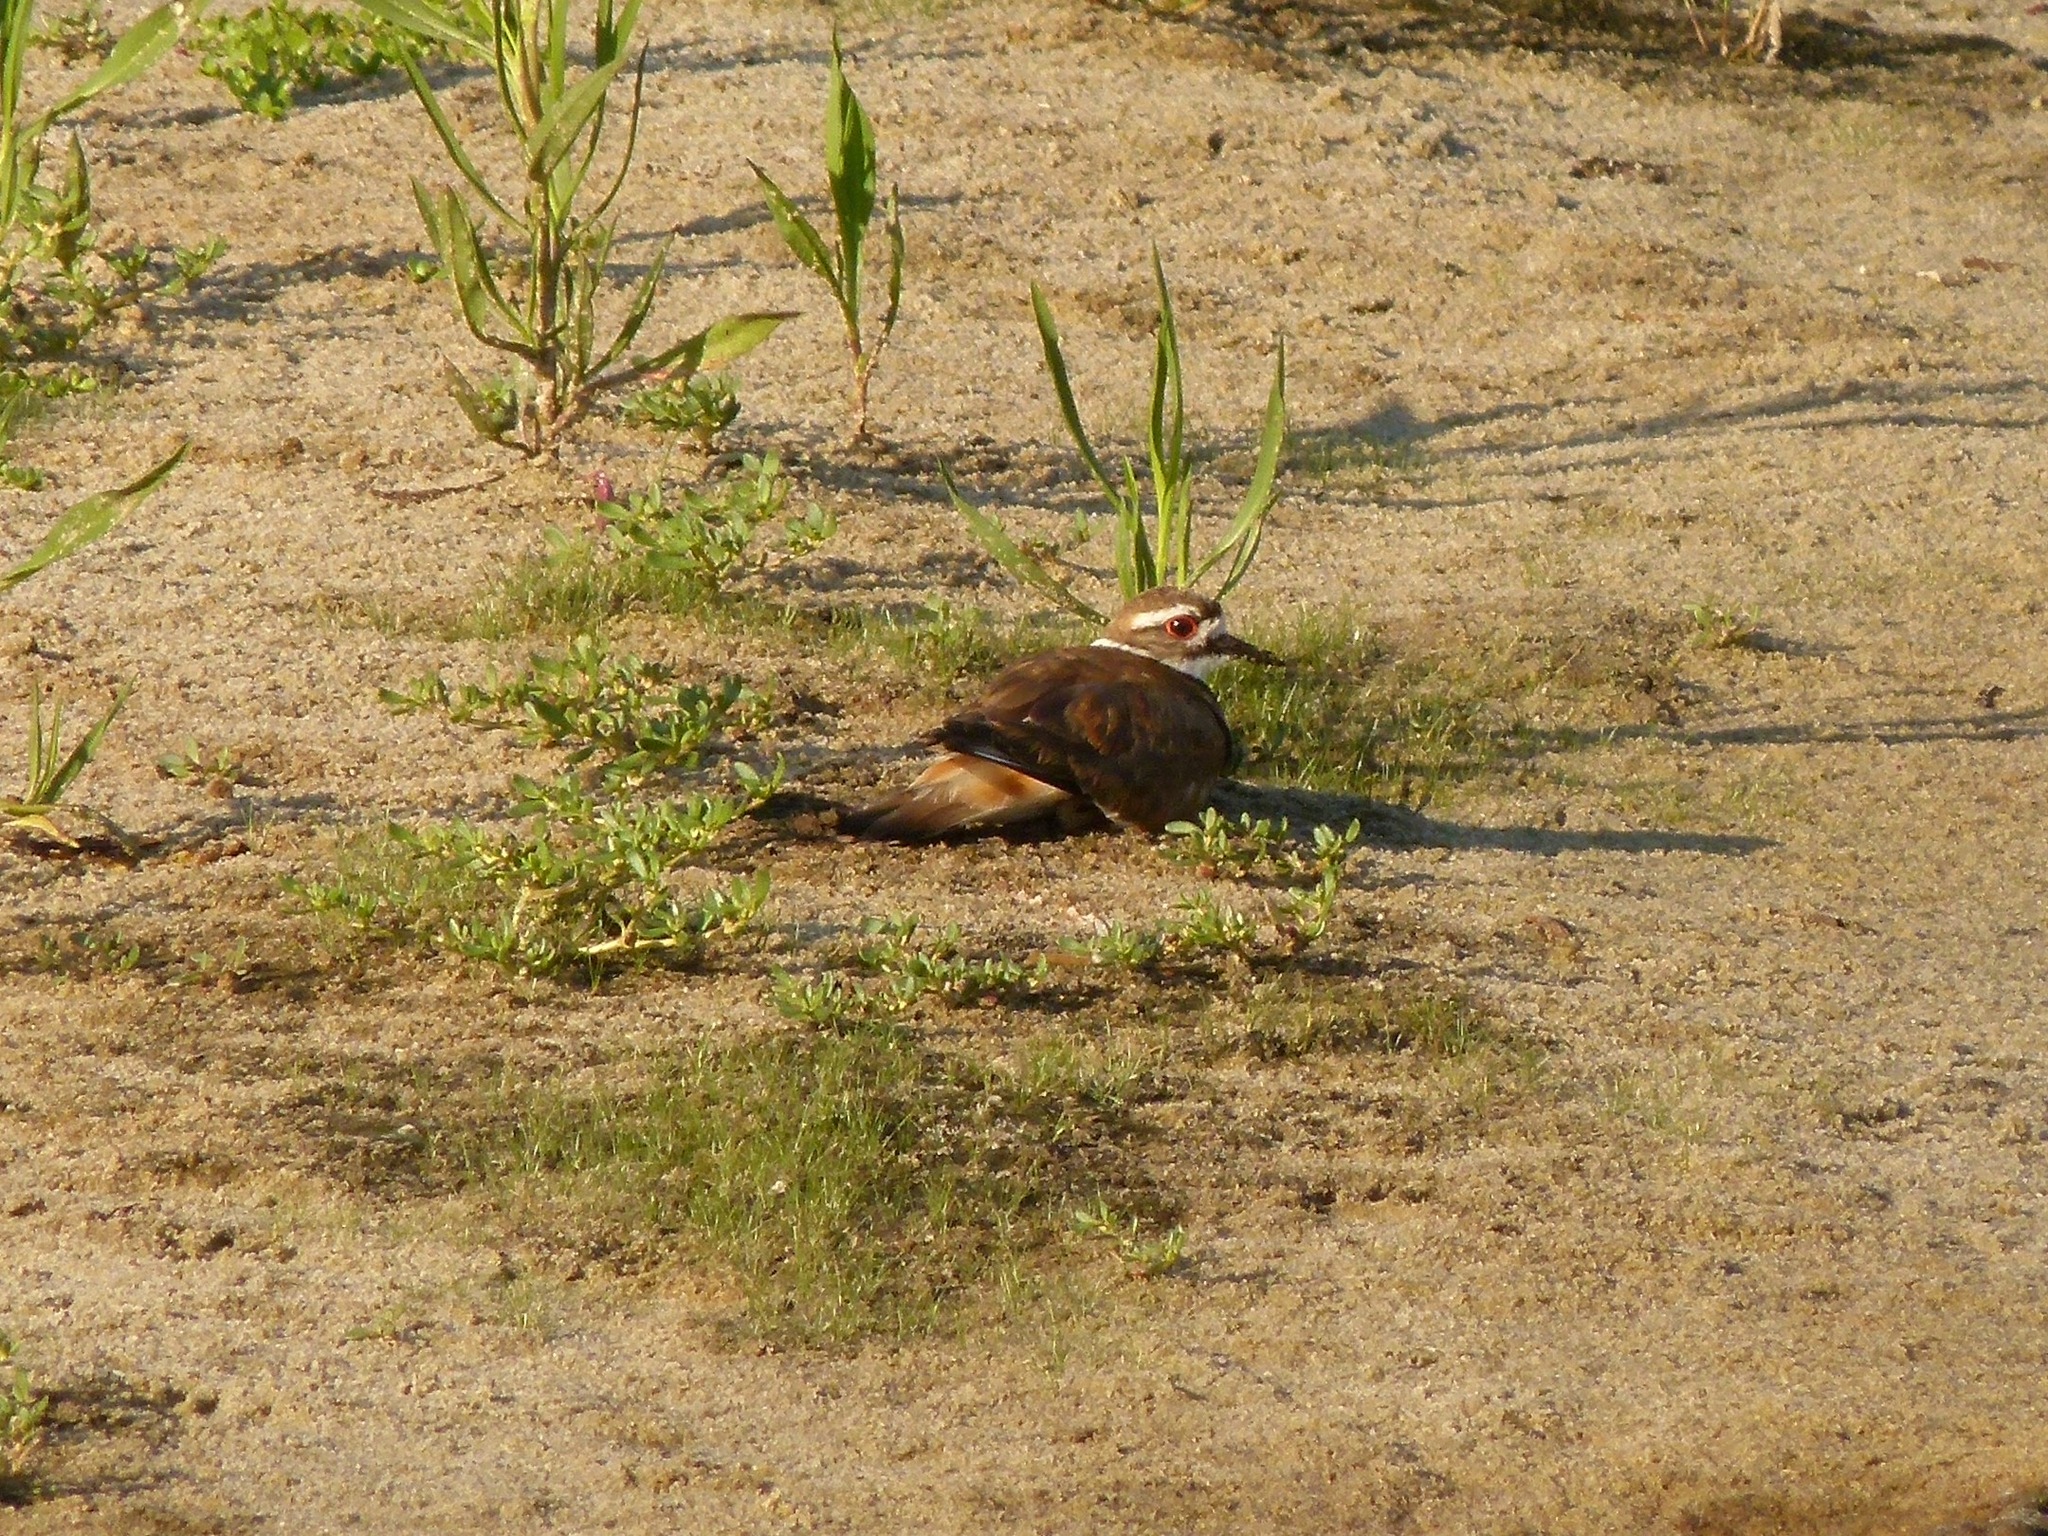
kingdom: Animalia
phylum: Chordata
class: Aves
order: Charadriiformes
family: Charadriidae
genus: Charadrius
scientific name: Charadrius vociferus
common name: Killdeer
